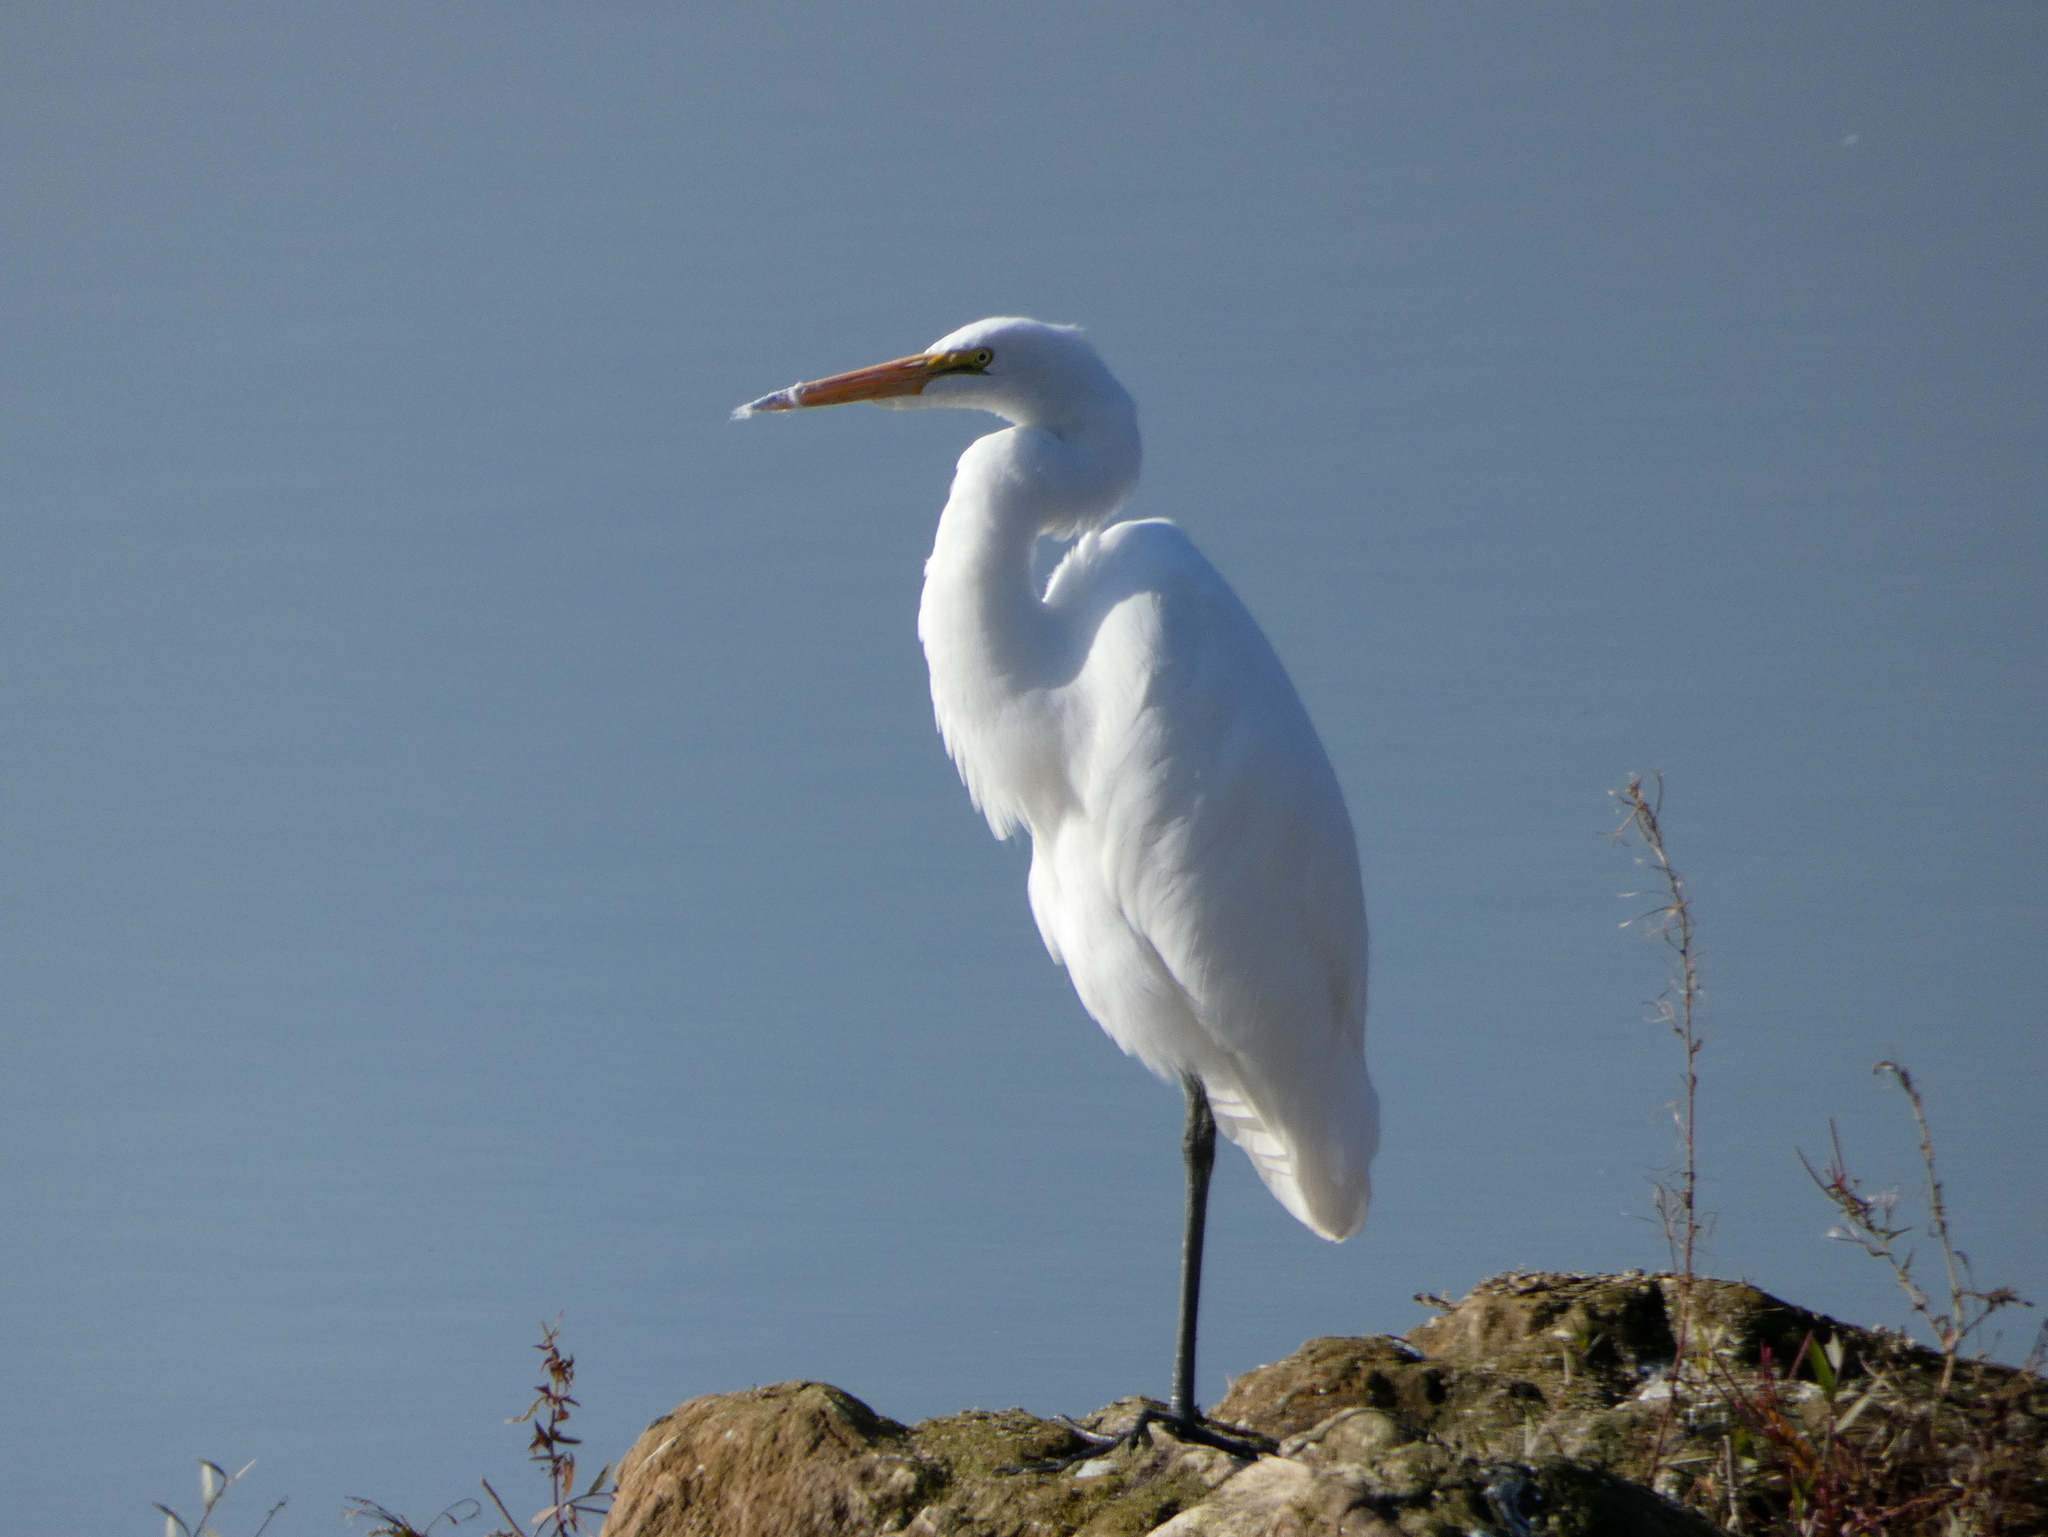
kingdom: Animalia
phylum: Chordata
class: Aves
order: Pelecaniformes
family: Ardeidae
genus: Ardea
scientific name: Ardea alba
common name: Great egret
